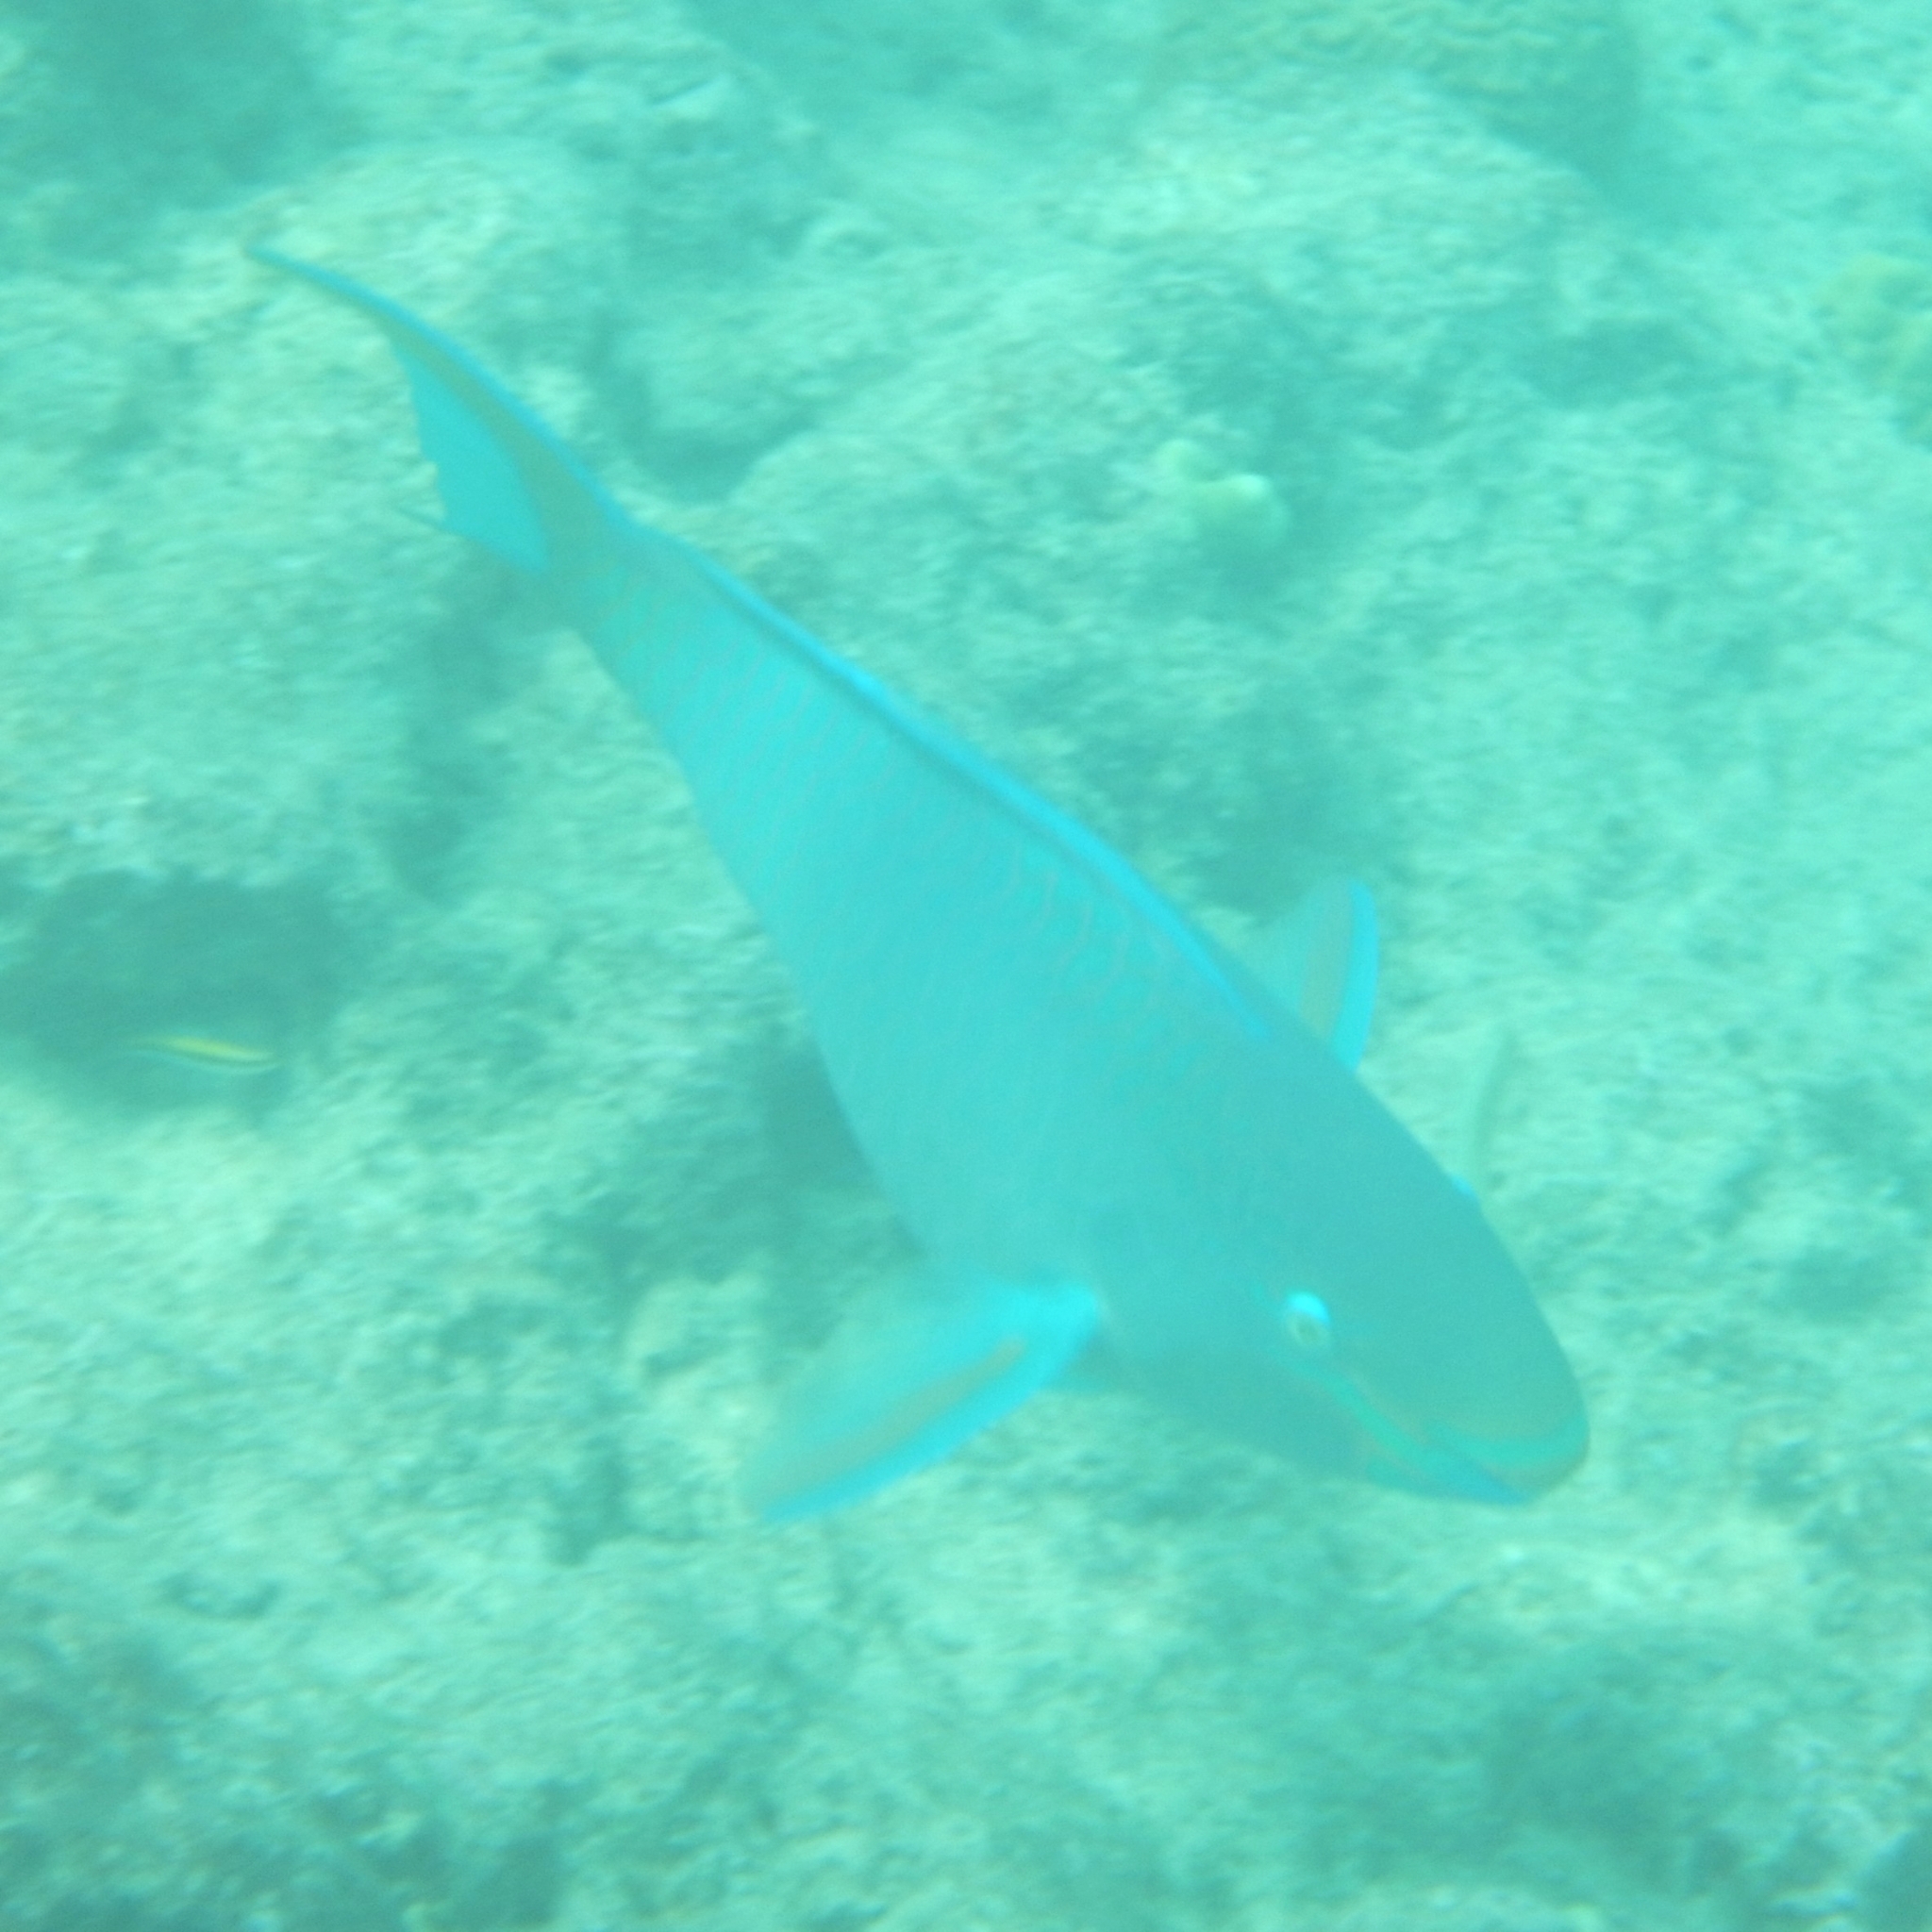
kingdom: Animalia
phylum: Chordata
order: Perciformes
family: Scaridae
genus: Scarus
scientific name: Scarus vetula
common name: Queen parrotfish
